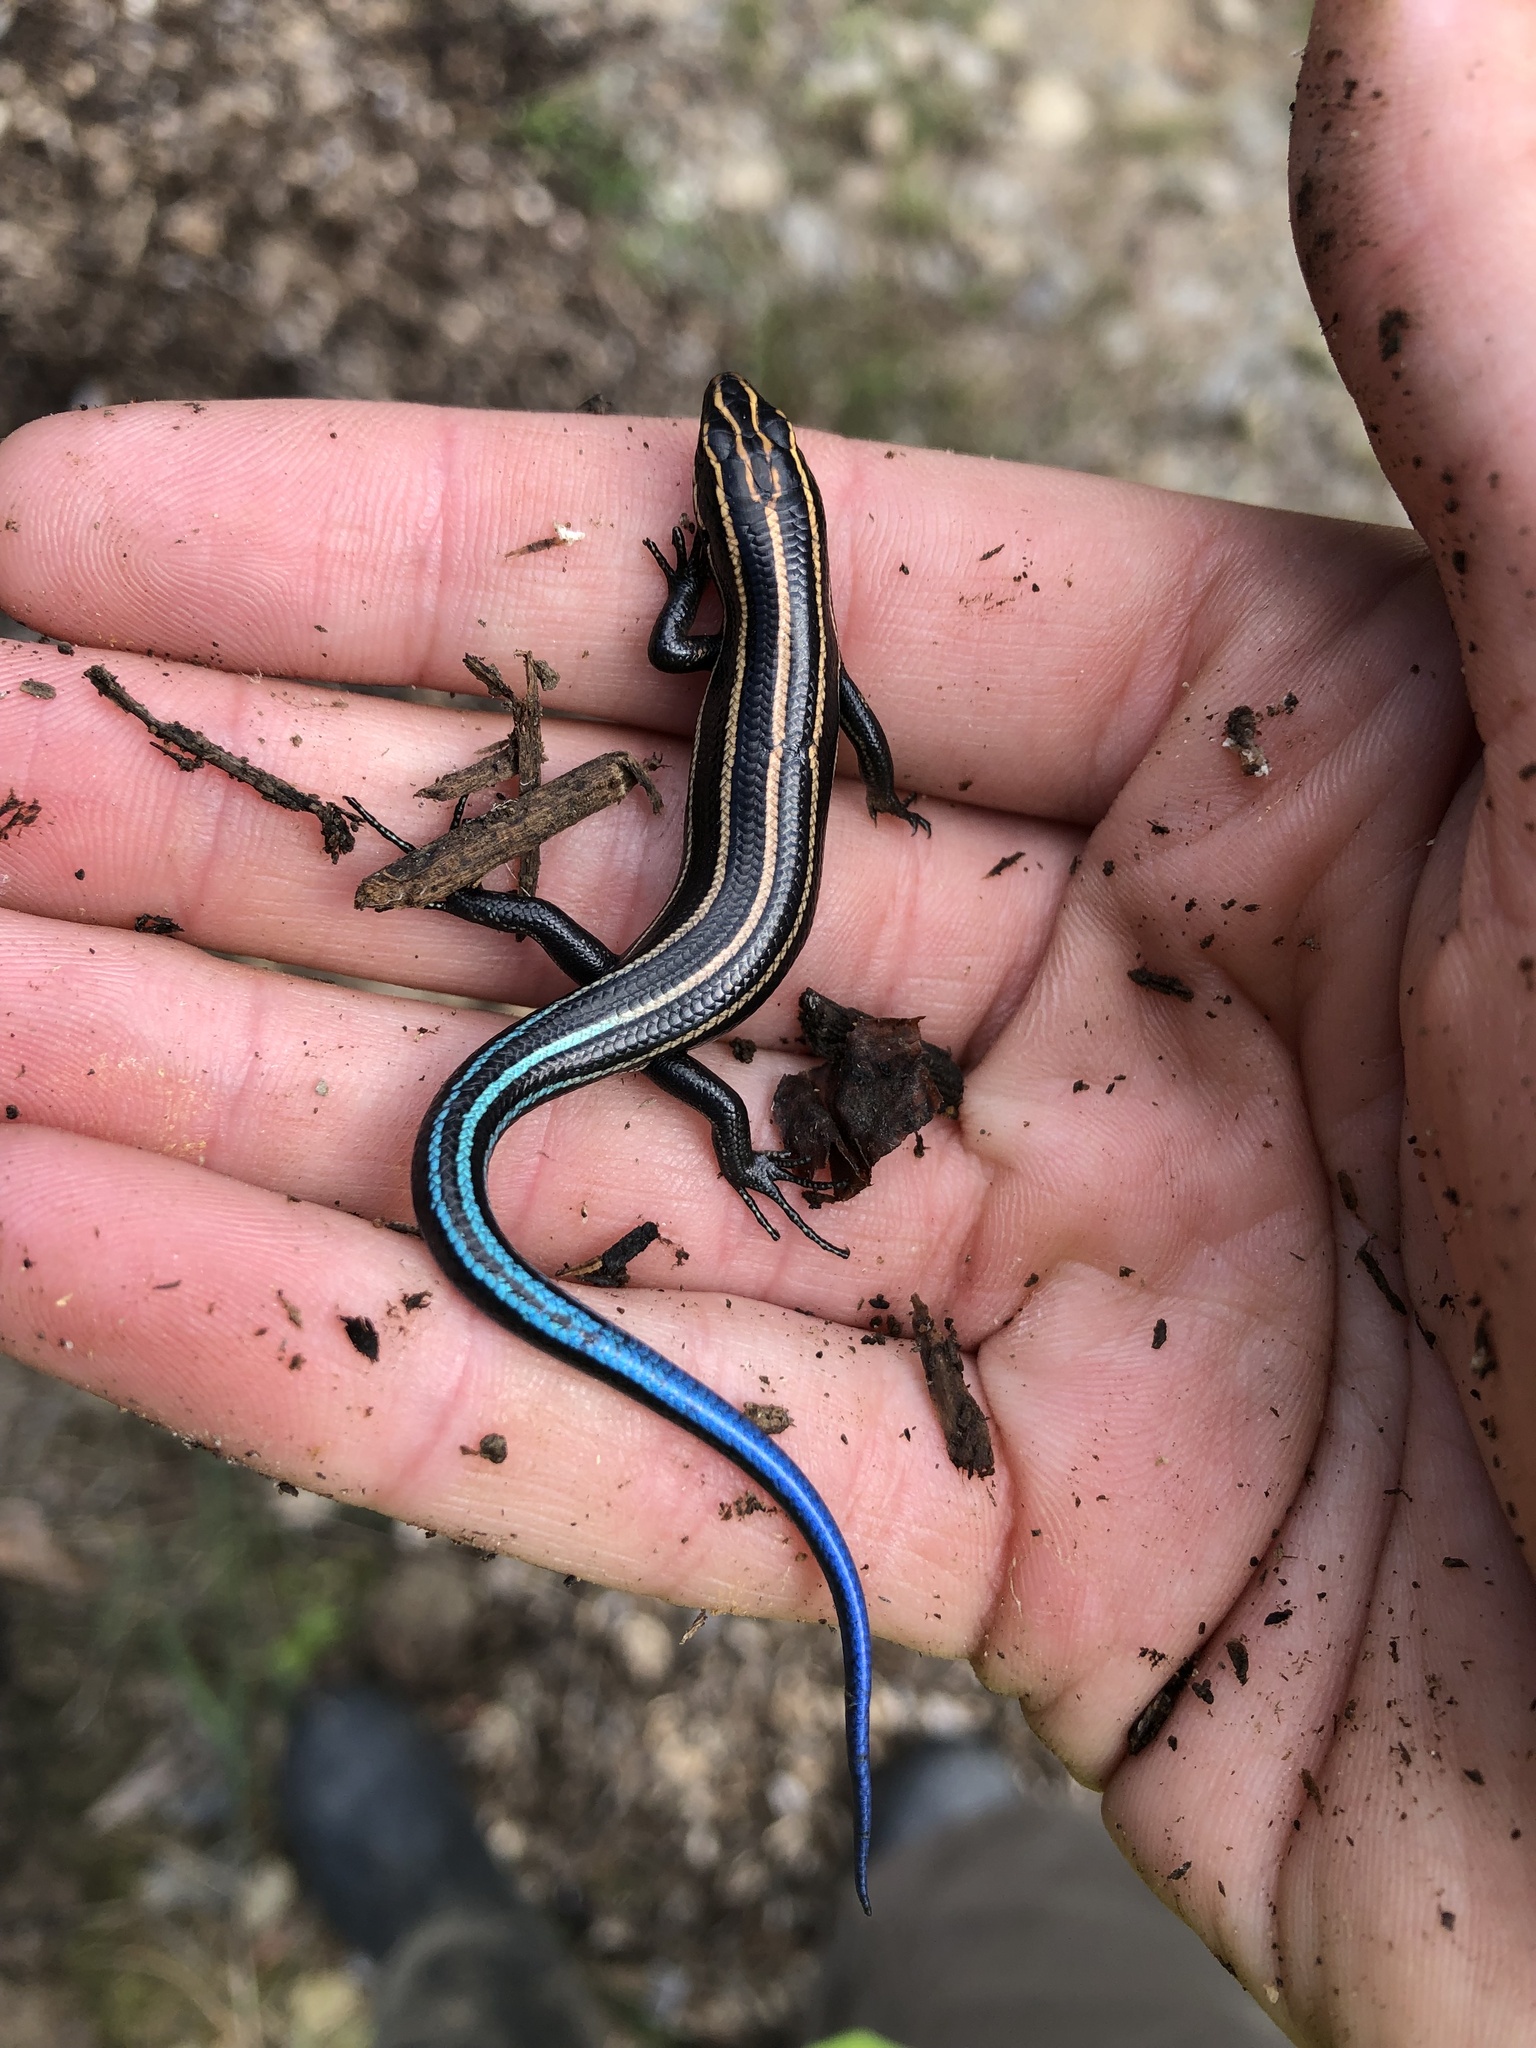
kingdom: Animalia
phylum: Chordata
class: Squamata
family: Scincidae
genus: Plestiodon
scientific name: Plestiodon fasciatus
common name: Five-lined skink
